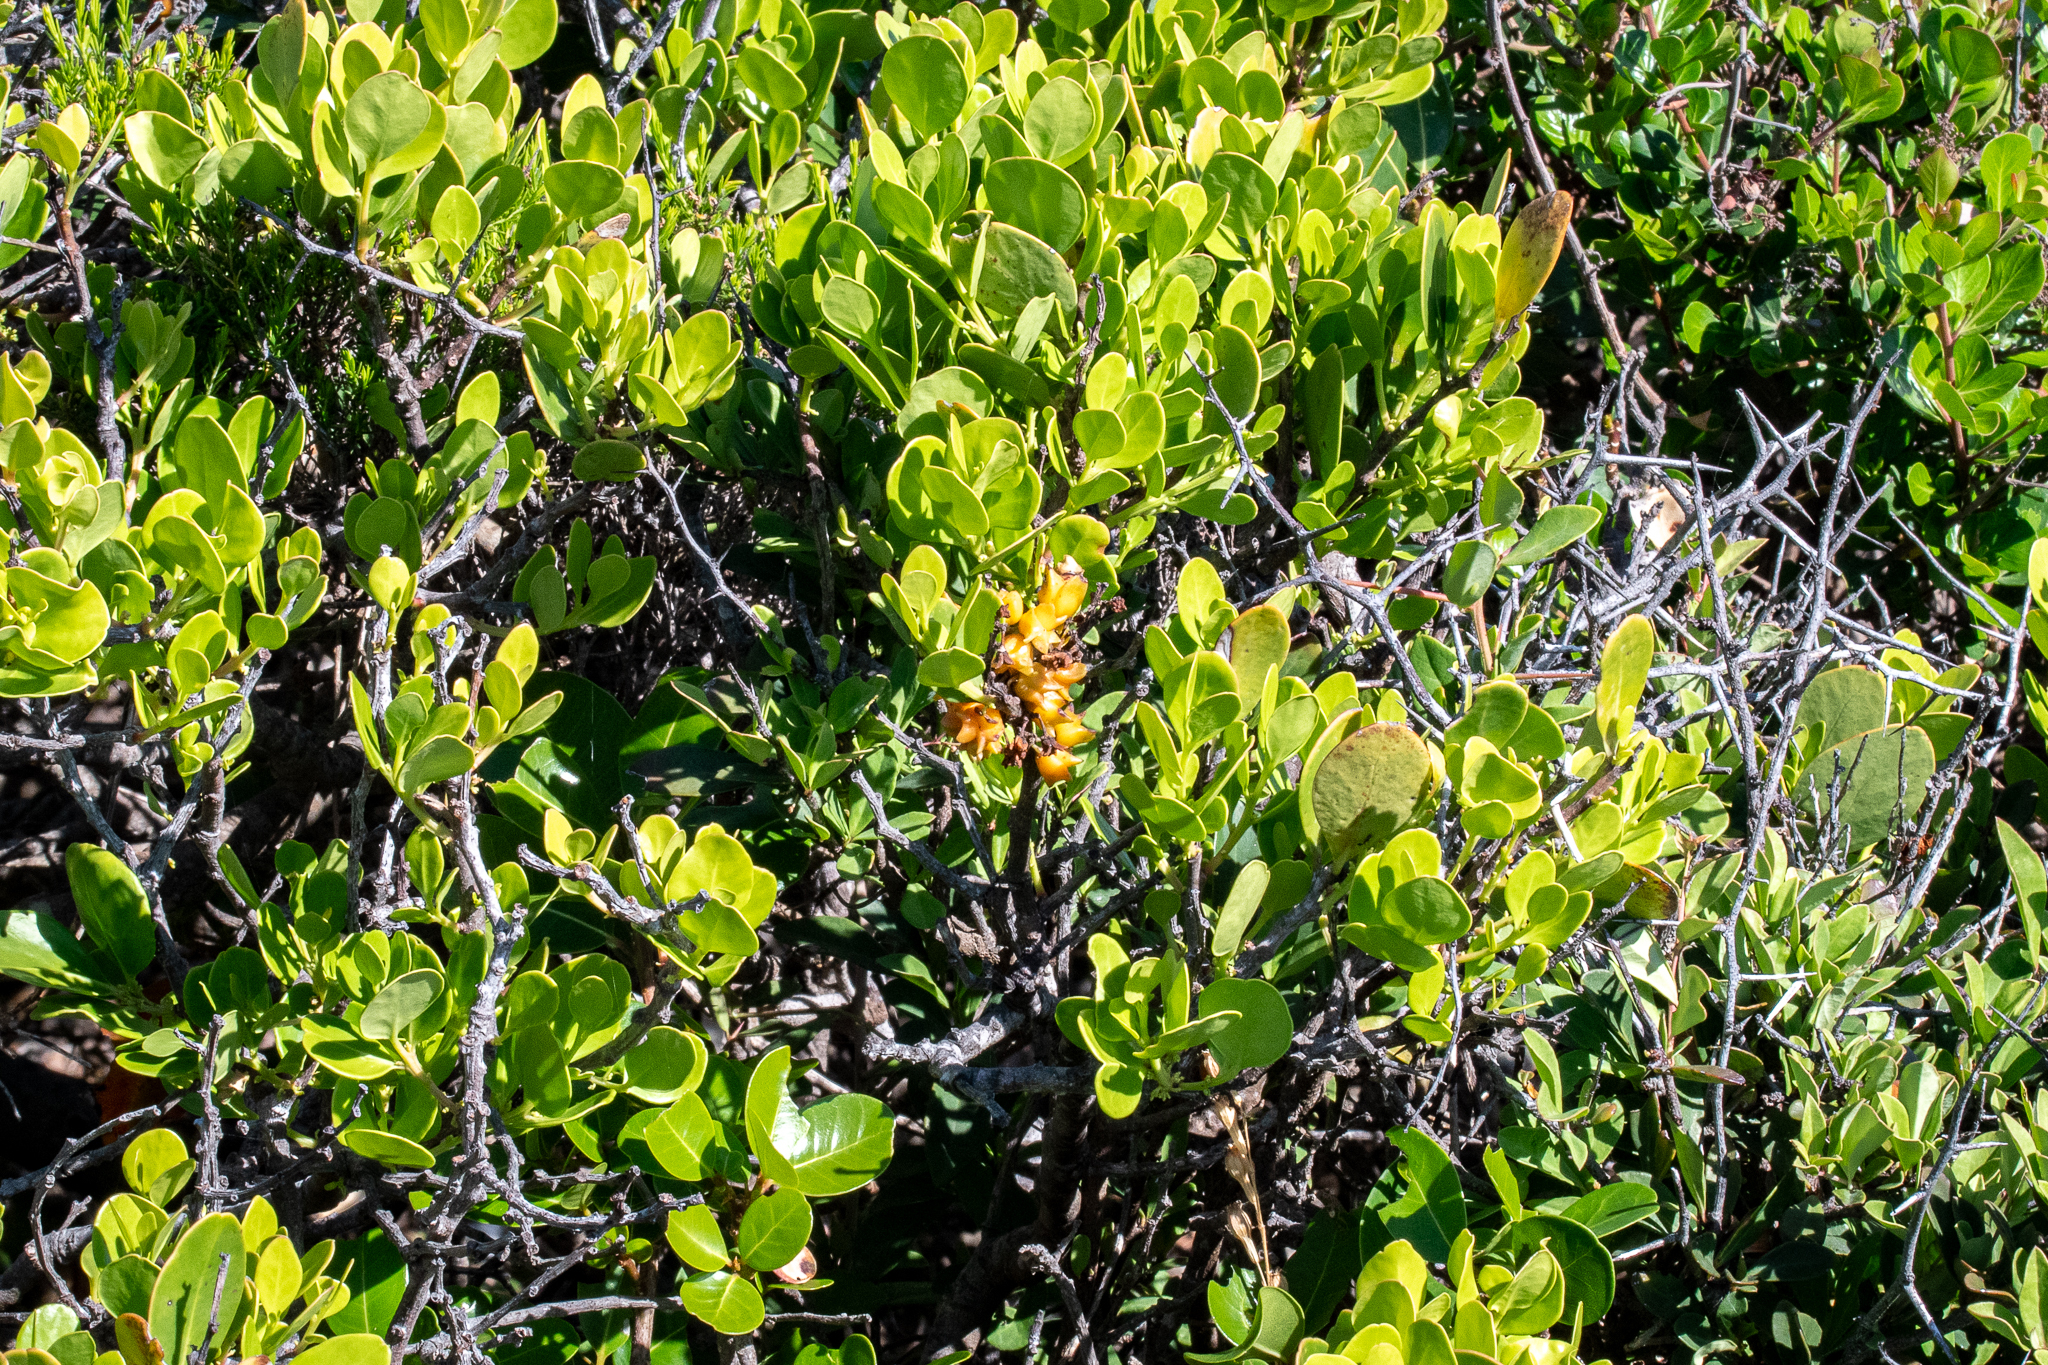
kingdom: Plantae
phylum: Tracheophyta
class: Magnoliopsida
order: Celastrales
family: Celastraceae
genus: Pterocelastrus
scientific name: Pterocelastrus tricuspidatus
